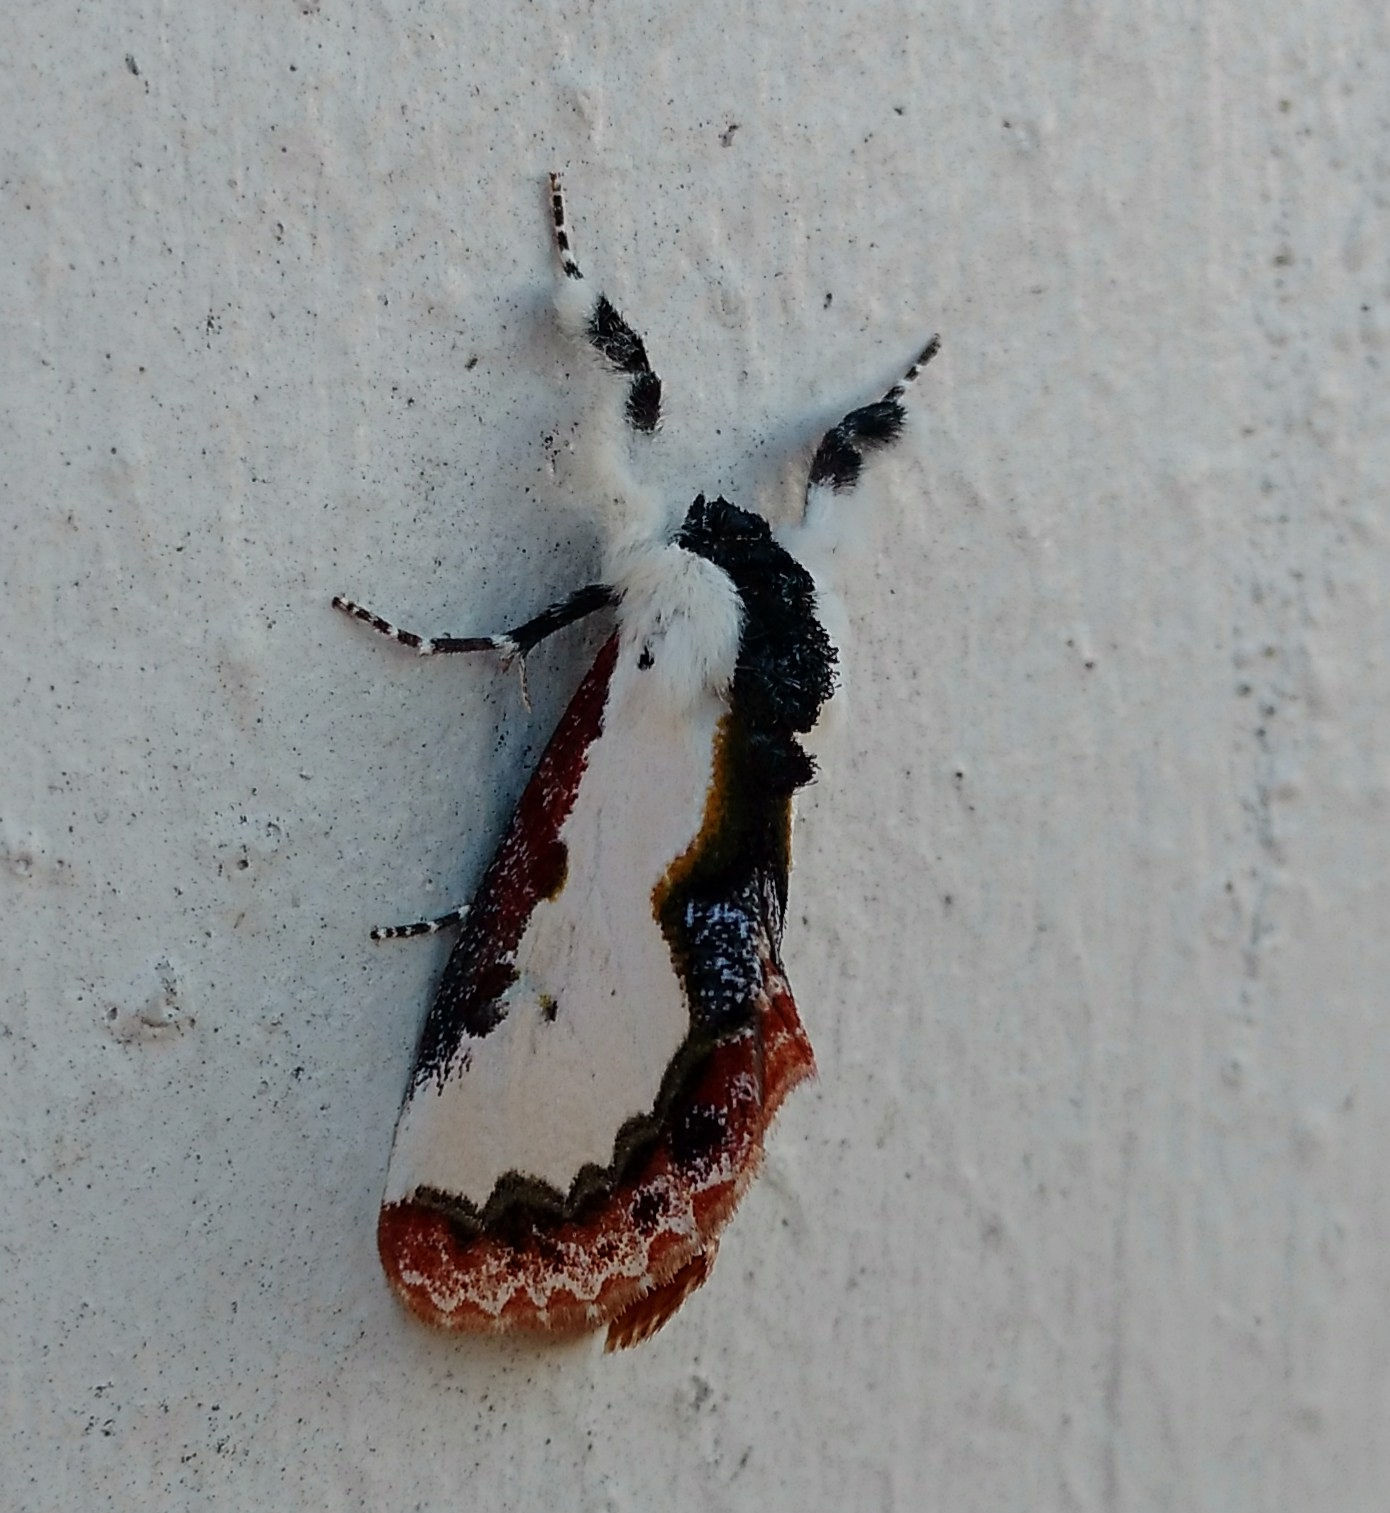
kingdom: Animalia
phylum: Arthropoda
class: Insecta
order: Lepidoptera
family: Noctuidae
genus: Eudryas
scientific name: Eudryas unio
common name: Pearly wood-nymph
